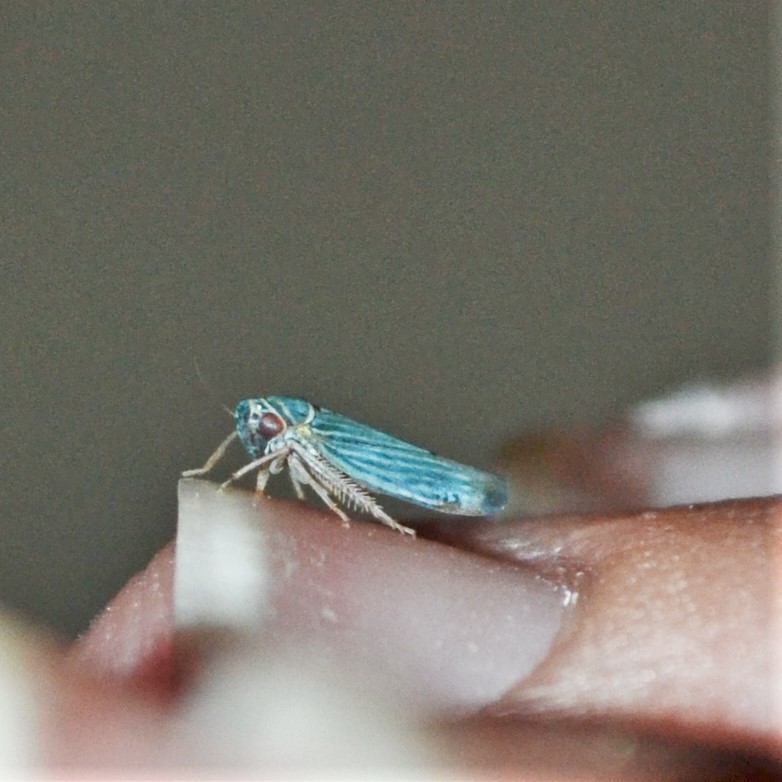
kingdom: Animalia
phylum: Arthropoda
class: Insecta
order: Hemiptera
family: Cicadellidae
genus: Tylozygus
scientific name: Tylozygus bifidus
